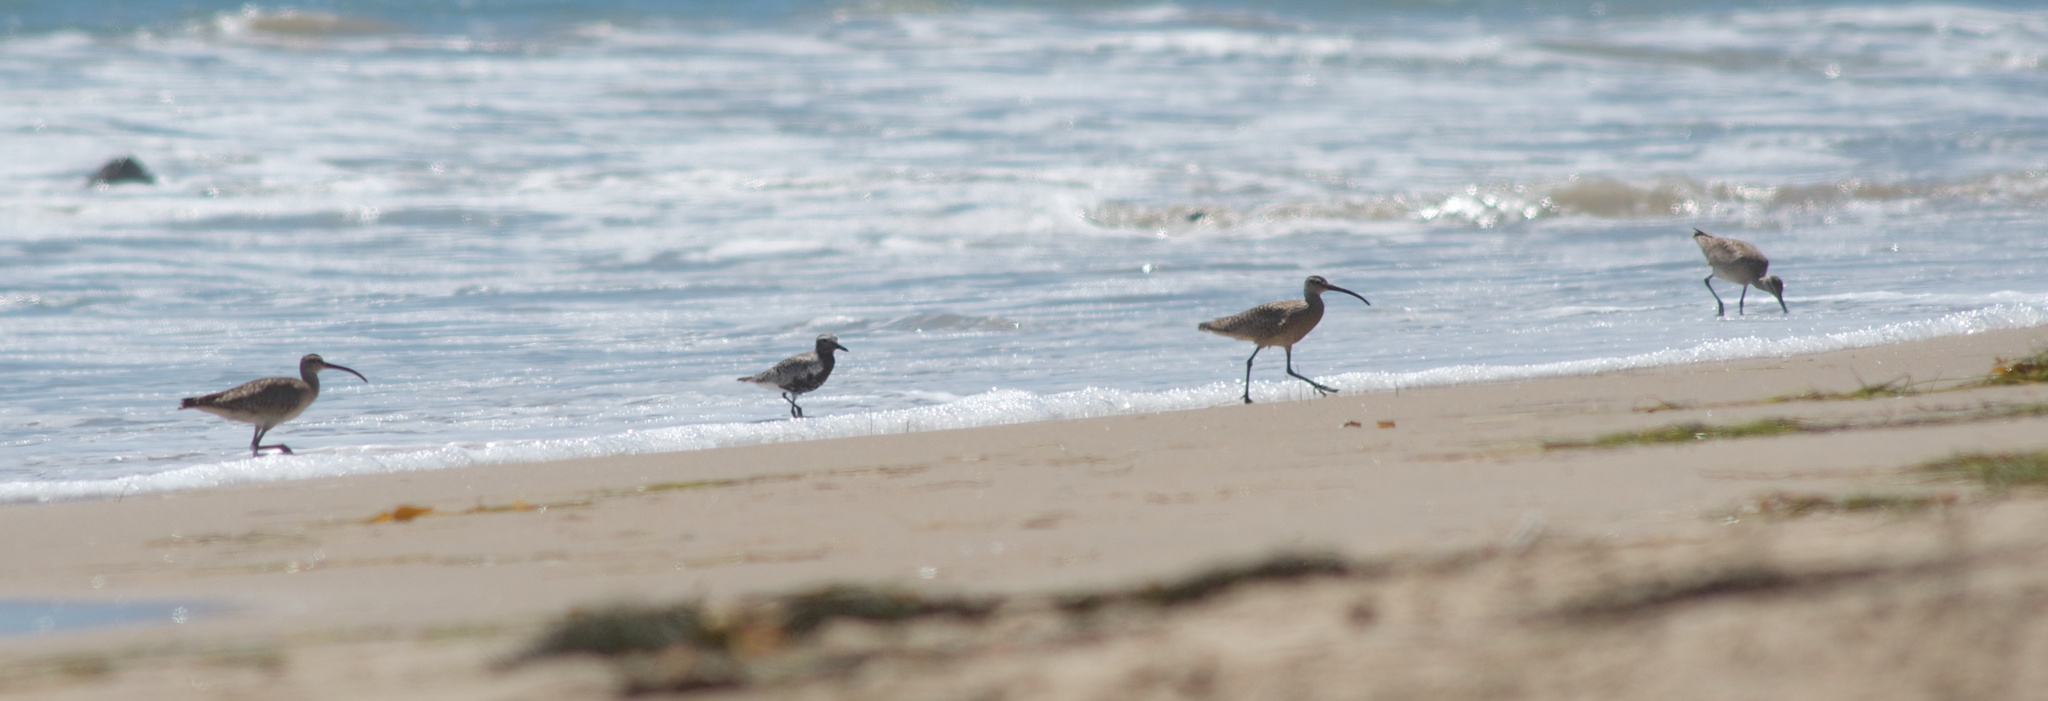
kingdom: Animalia
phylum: Chordata
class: Aves
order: Charadriiformes
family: Charadriidae
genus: Pluvialis
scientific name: Pluvialis squatarola
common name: Grey plover
